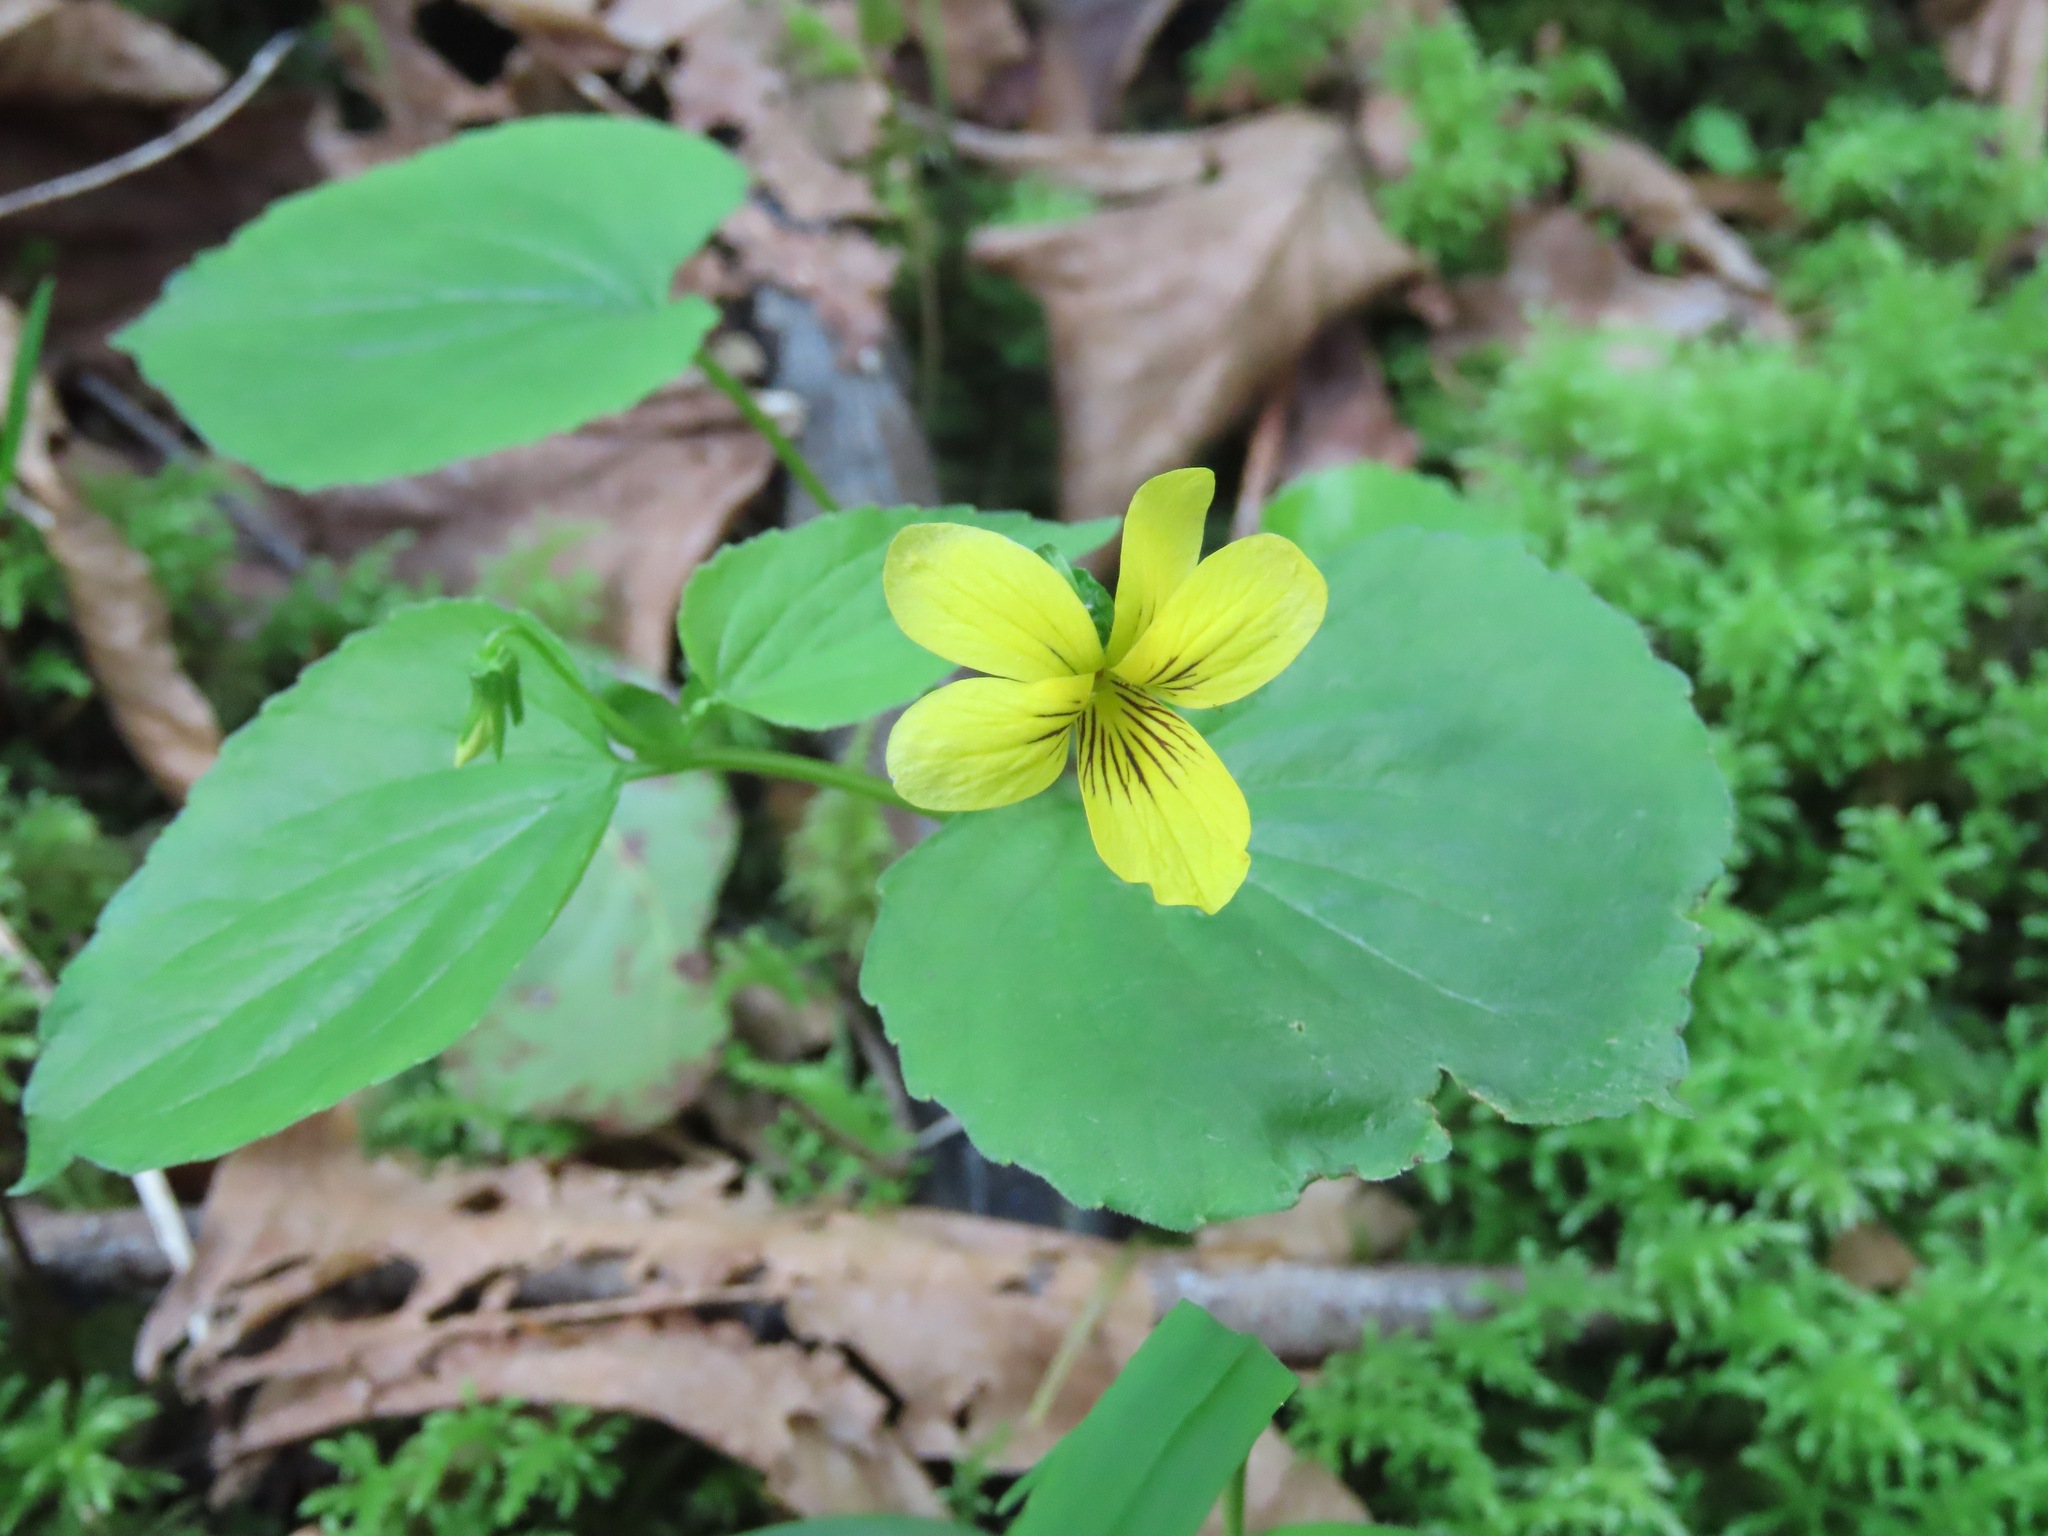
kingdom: Plantae
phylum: Tracheophyta
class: Magnoliopsida
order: Malpighiales
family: Violaceae
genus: Viola
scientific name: Viola glabella
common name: Stream violet
